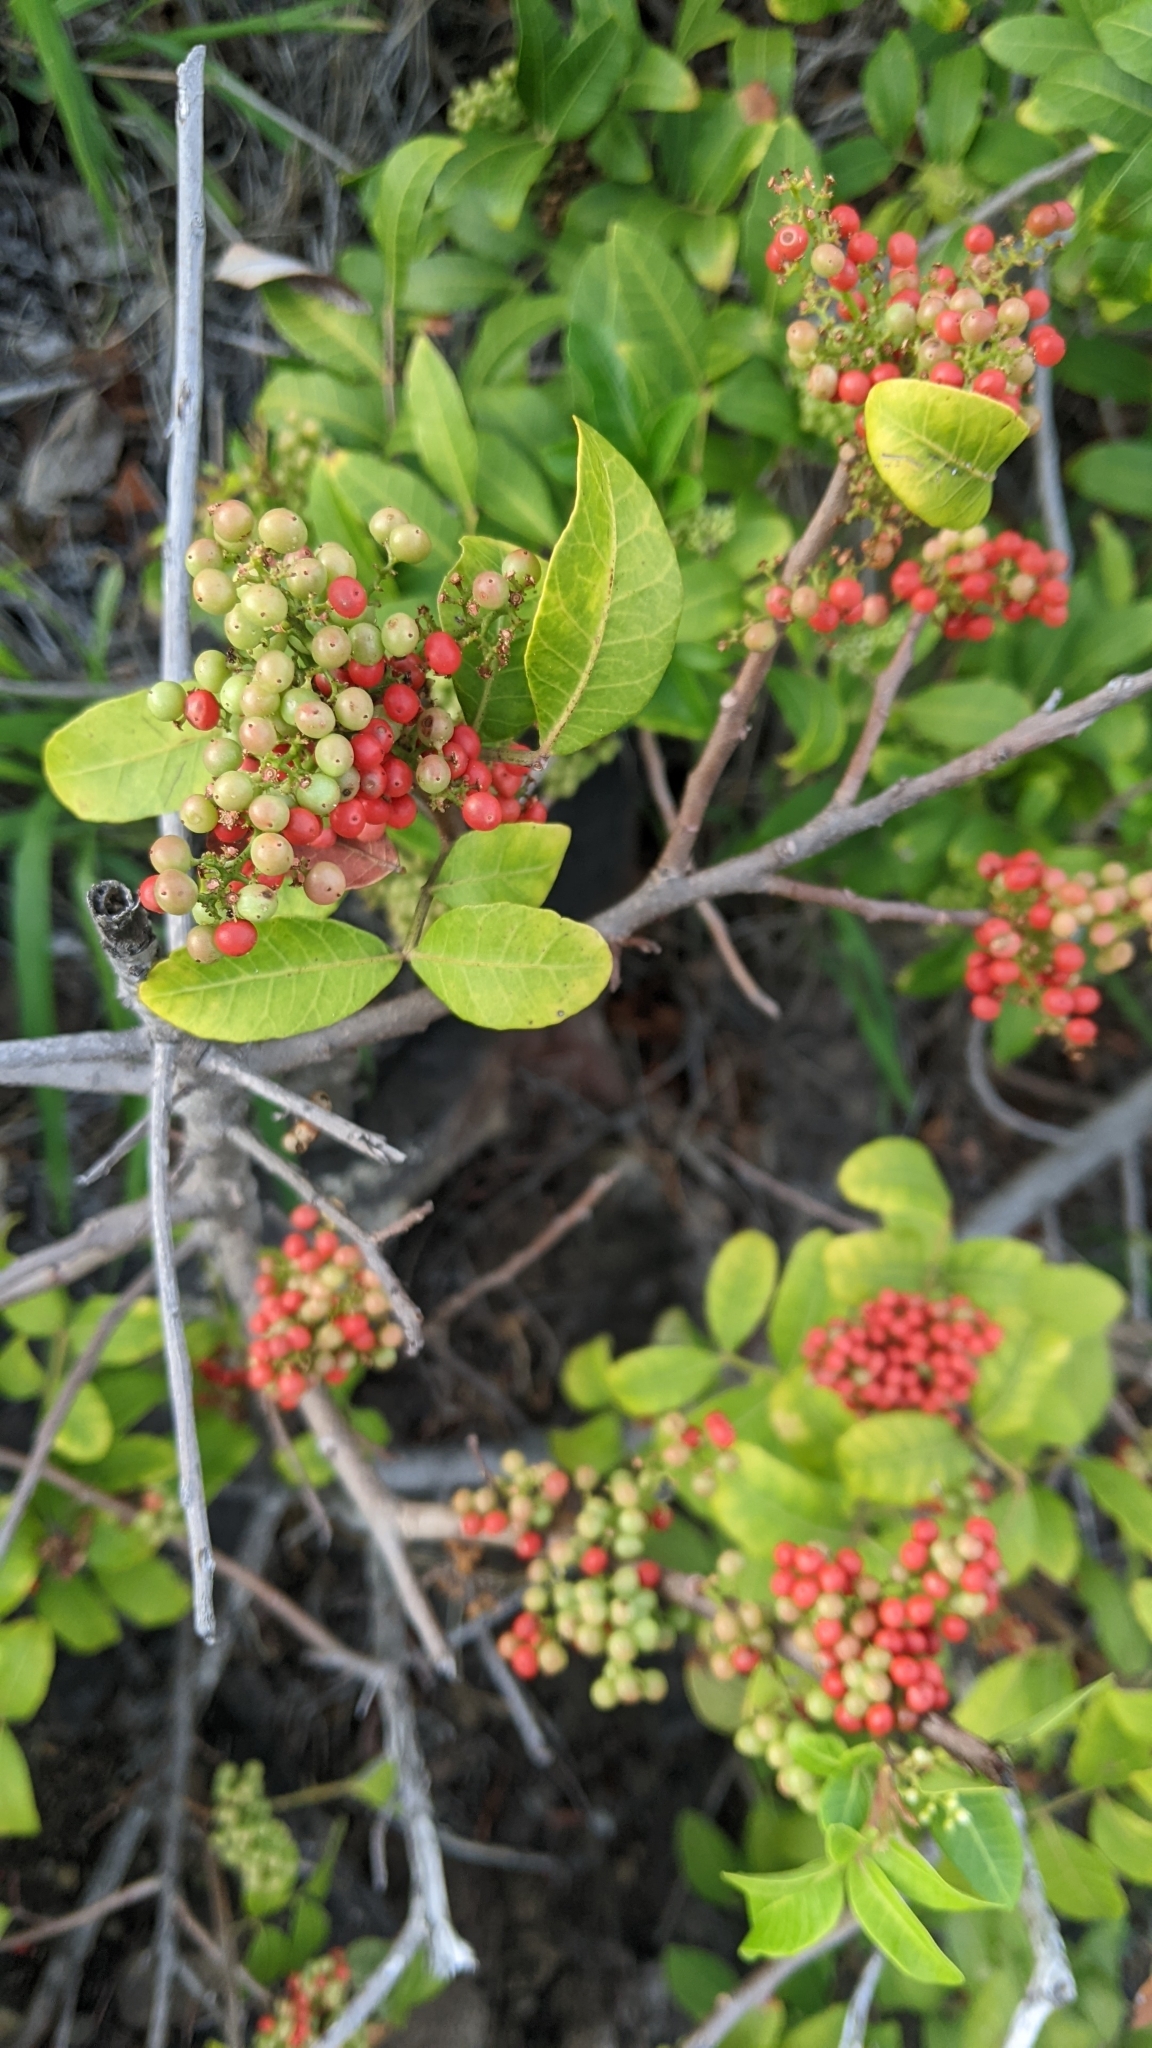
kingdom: Plantae
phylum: Tracheophyta
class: Magnoliopsida
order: Sapindales
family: Anacardiaceae
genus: Schinus
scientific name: Schinus terebinthifolia
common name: Brazilian peppertree
